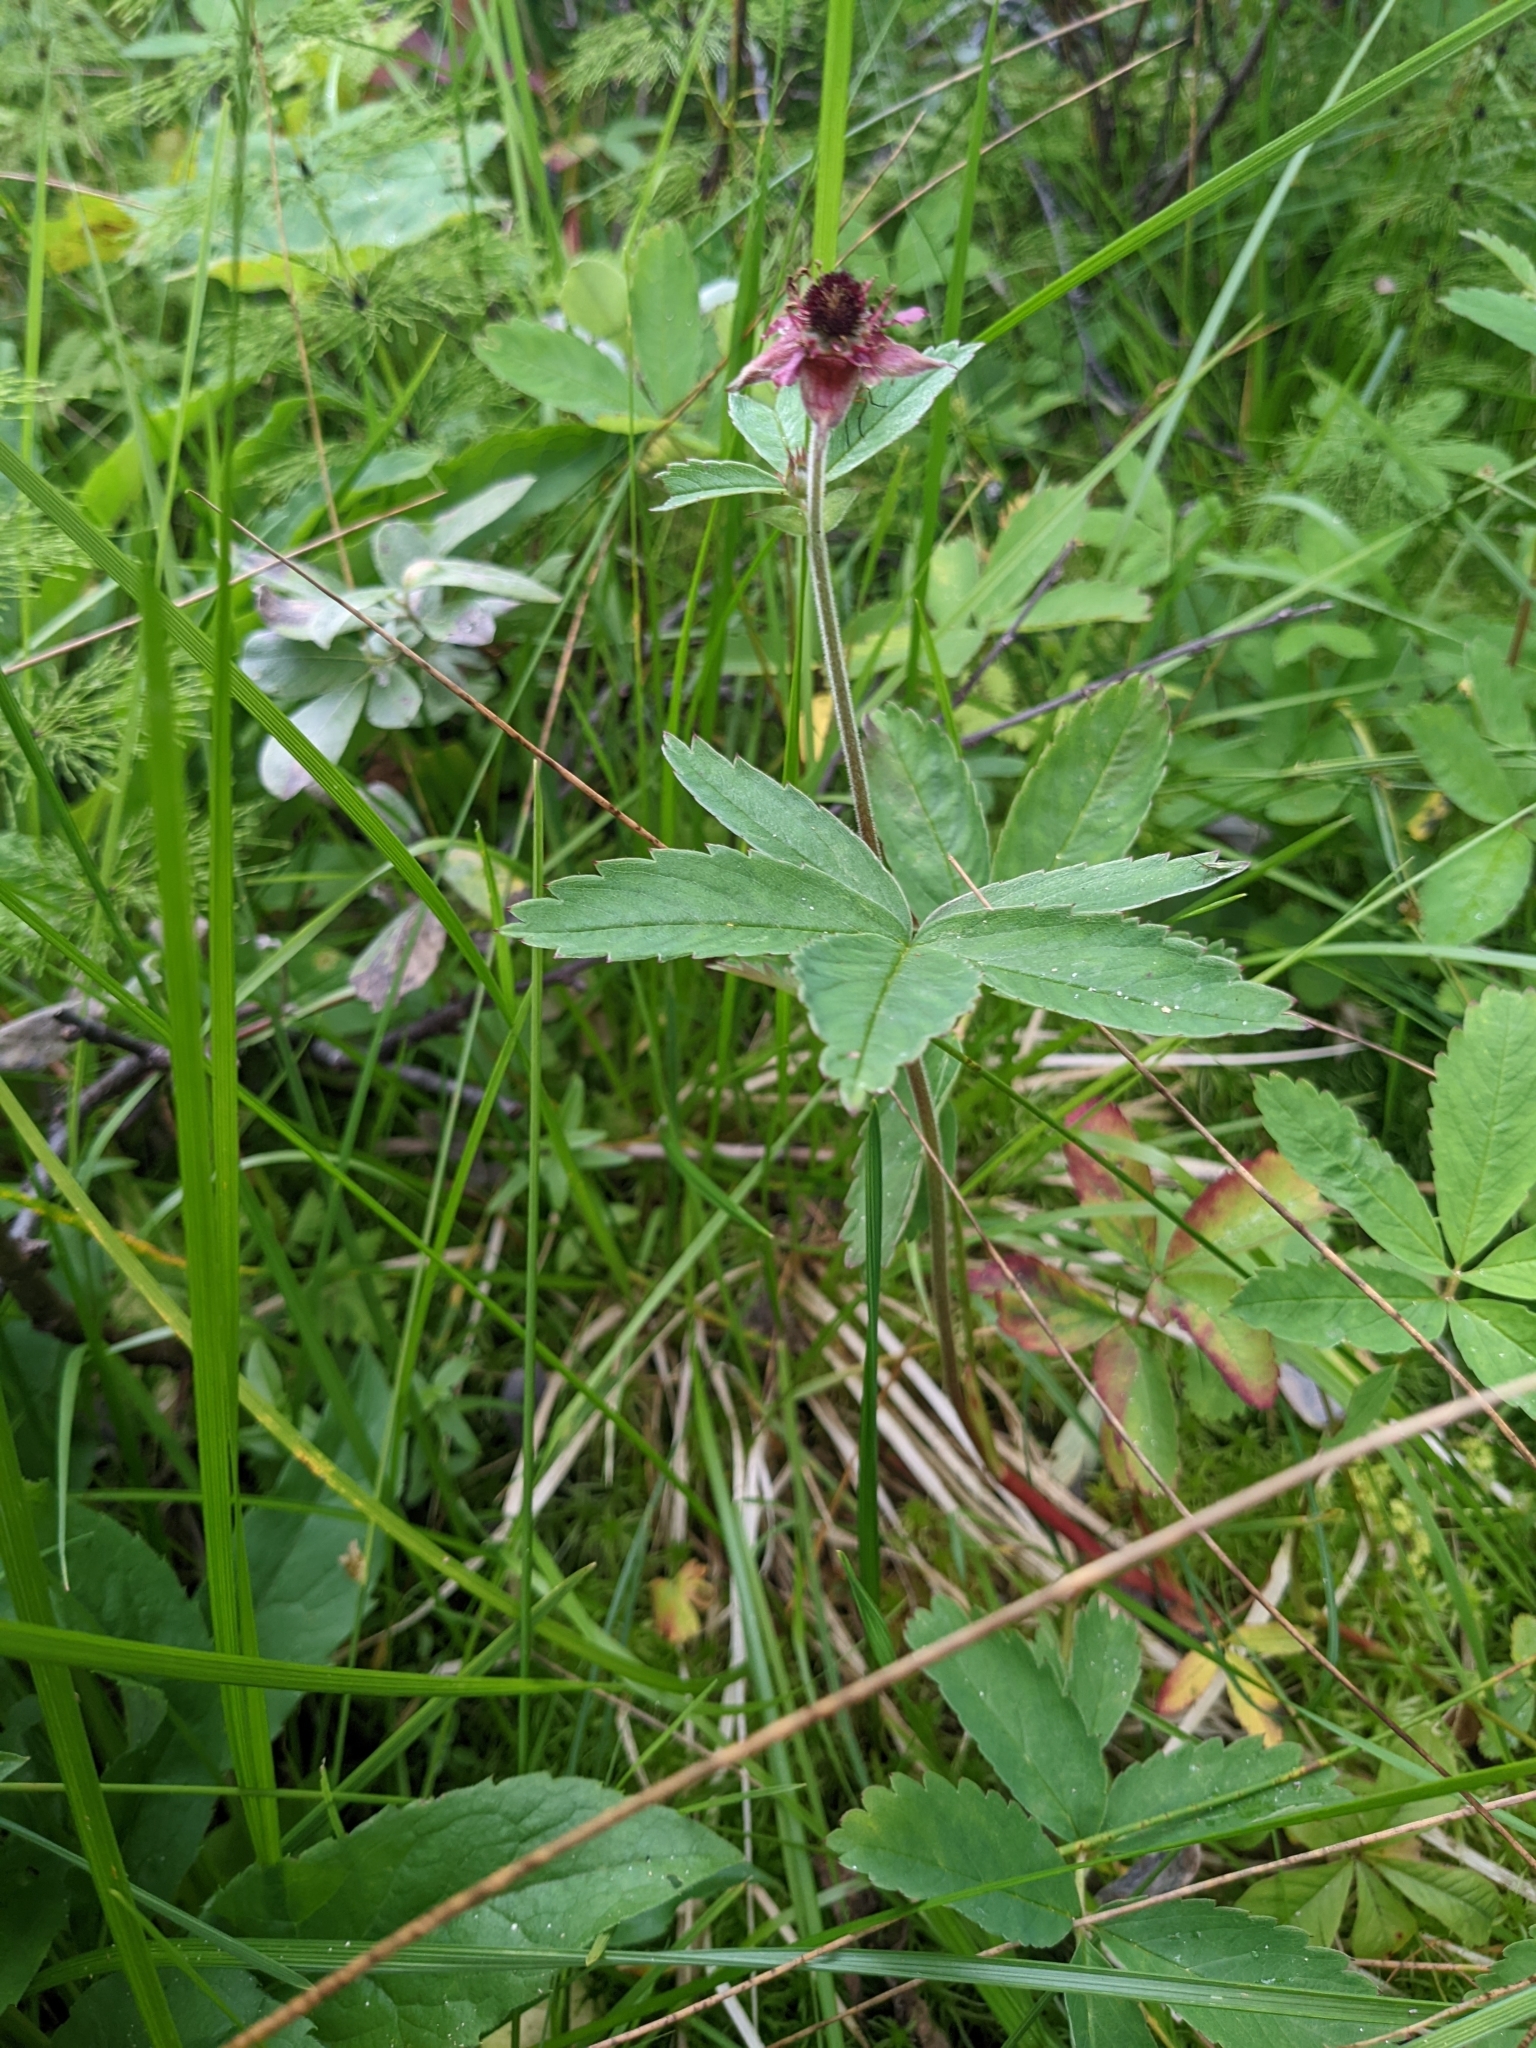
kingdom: Plantae
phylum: Tracheophyta
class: Magnoliopsida
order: Rosales
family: Rosaceae
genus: Comarum
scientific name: Comarum palustre
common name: Marsh cinquefoil
